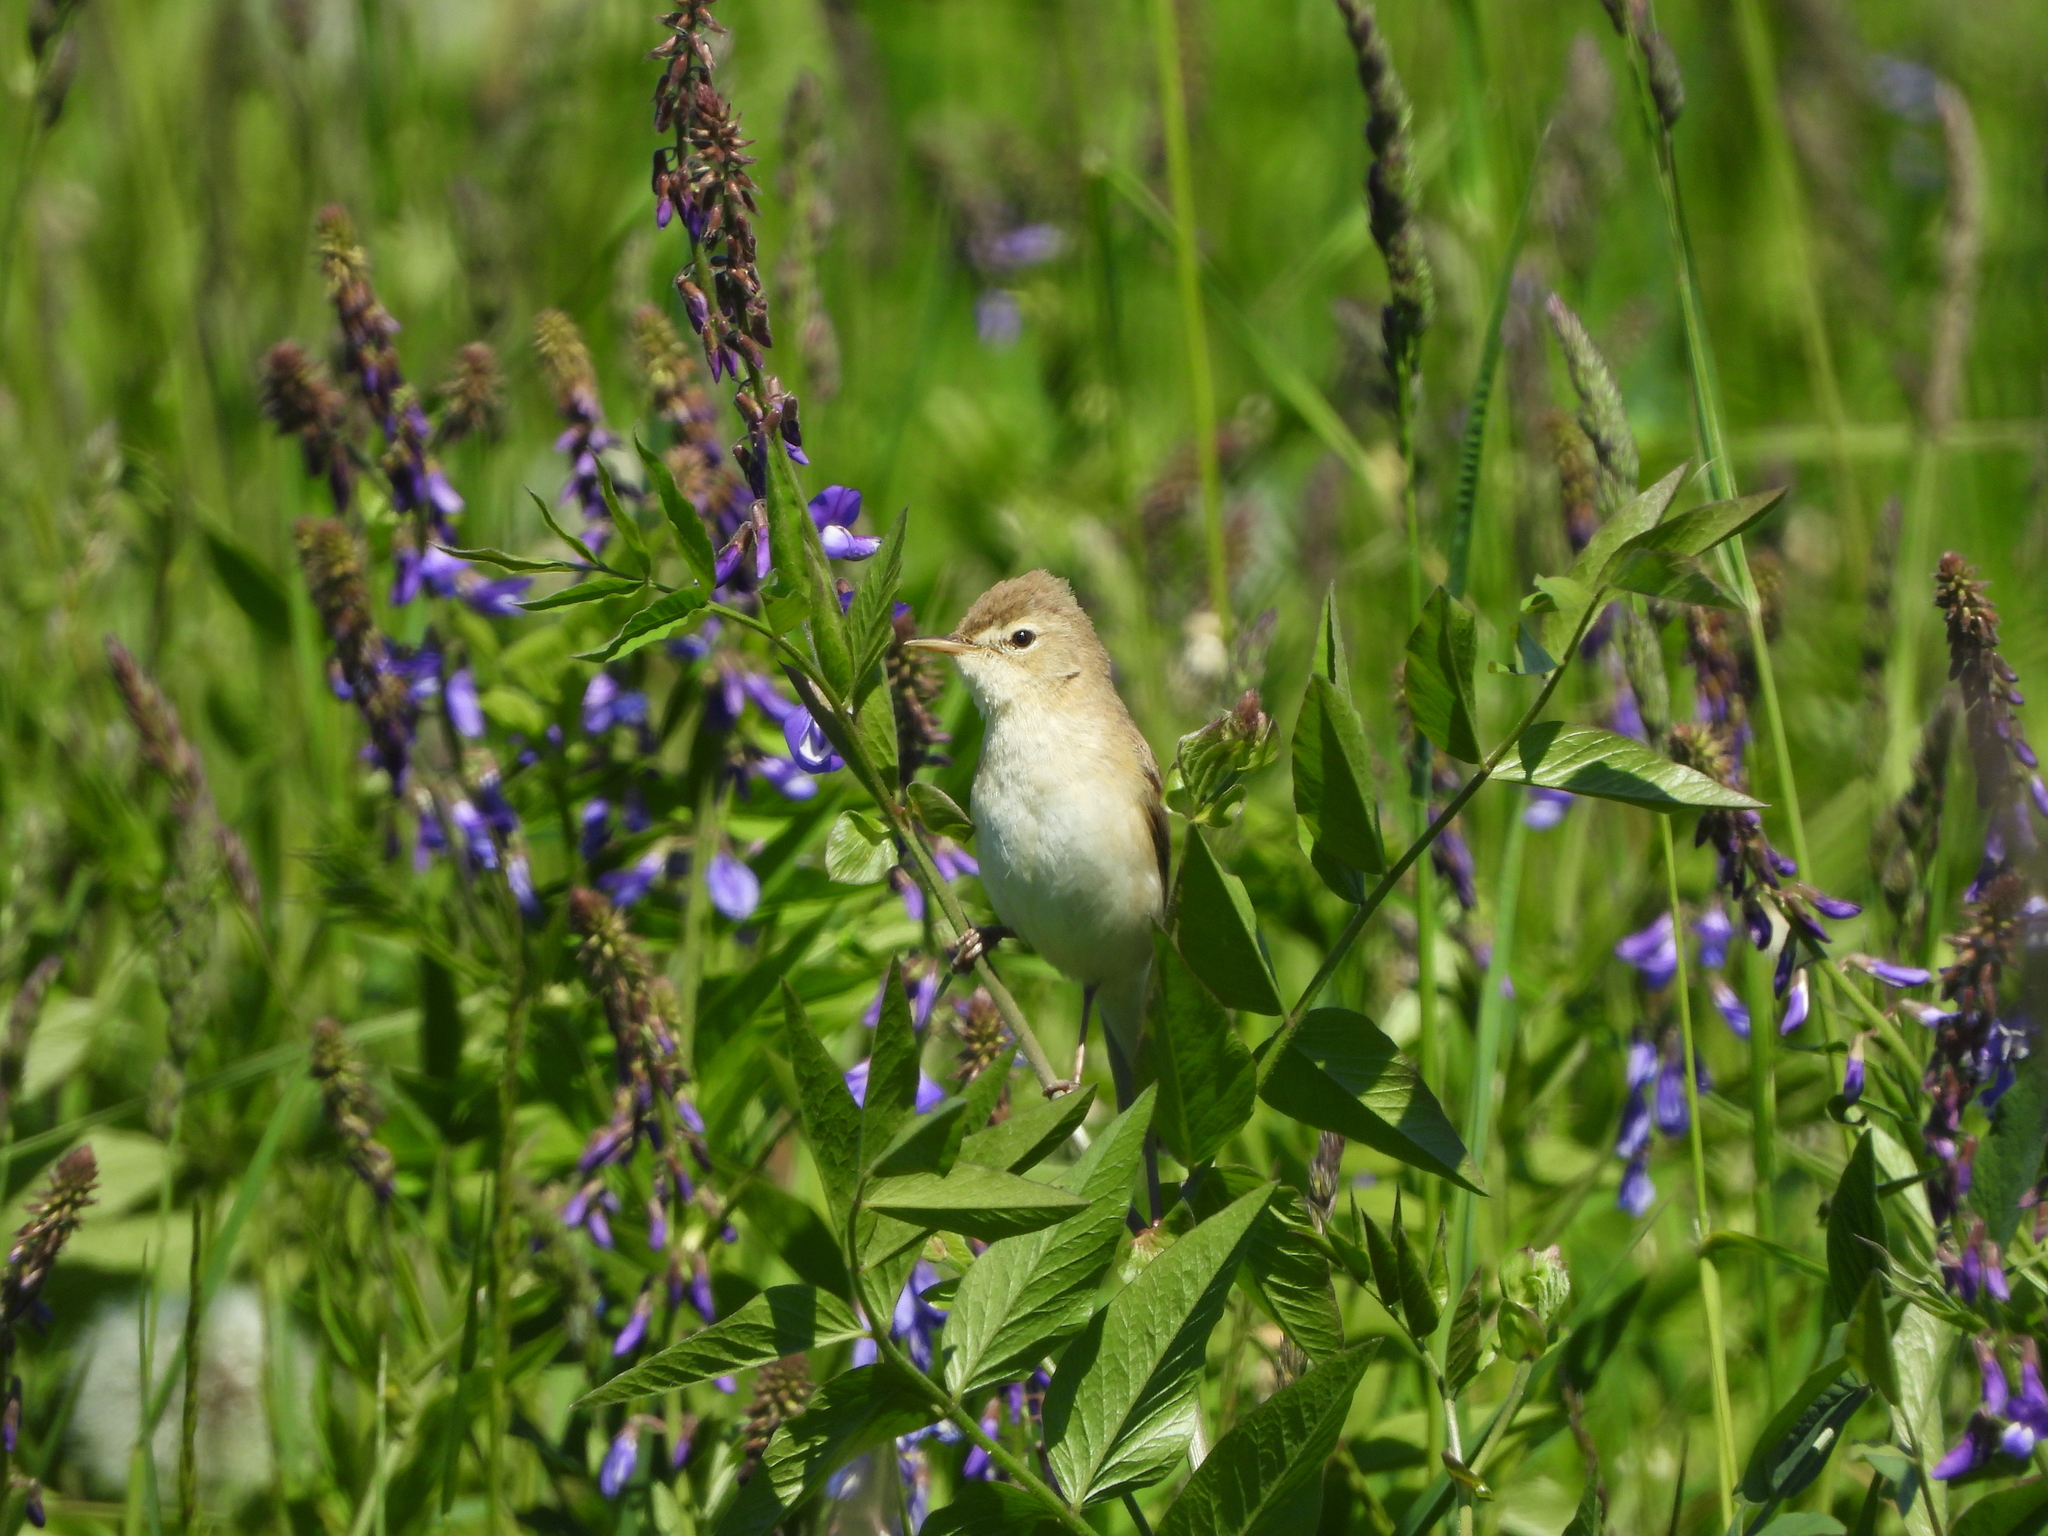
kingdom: Animalia
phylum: Chordata
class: Aves
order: Passeriformes
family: Acrocephalidae
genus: Acrocephalus
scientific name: Acrocephalus dumetorum
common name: Blyth's reed warbler
